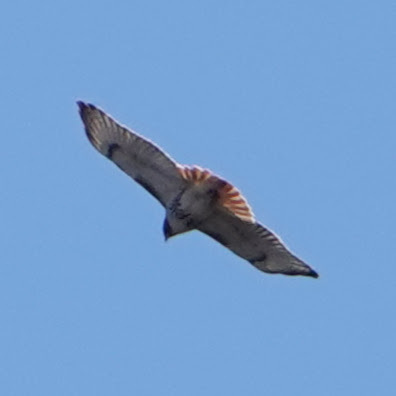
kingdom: Animalia
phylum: Chordata
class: Aves
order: Accipitriformes
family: Accipitridae
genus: Buteo
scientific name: Buteo jamaicensis
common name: Red-tailed hawk
